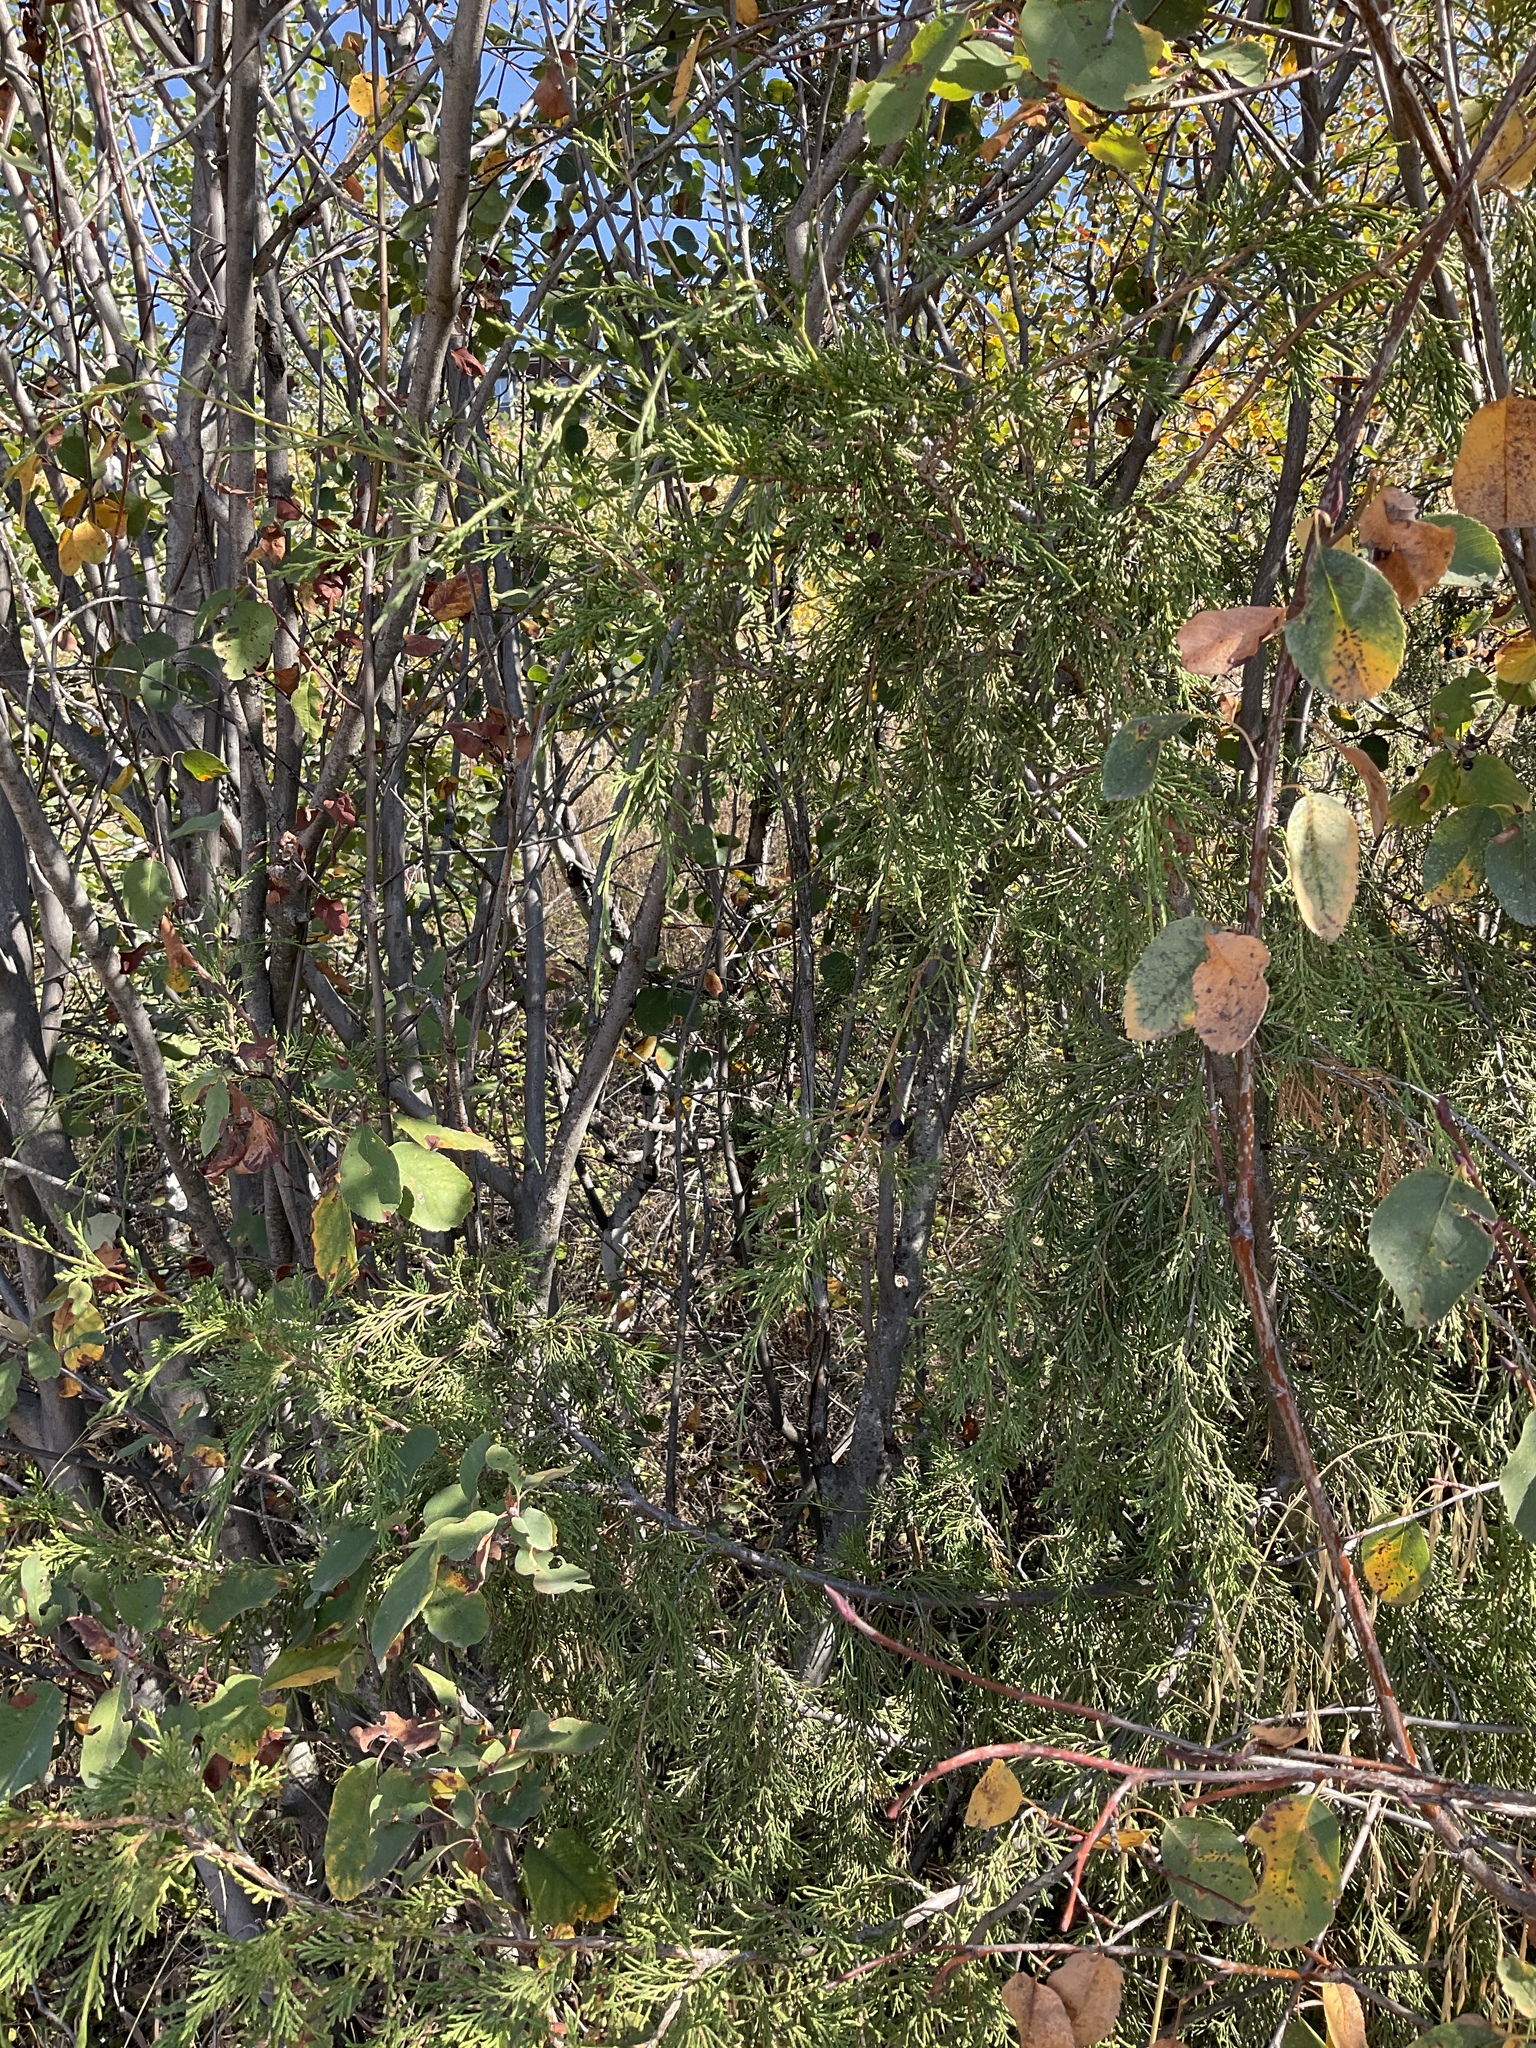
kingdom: Plantae
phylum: Tracheophyta
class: Pinopsida
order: Pinales
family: Cupressaceae
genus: Juniperus
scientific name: Juniperus scopulorum
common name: Rocky mountain juniper
